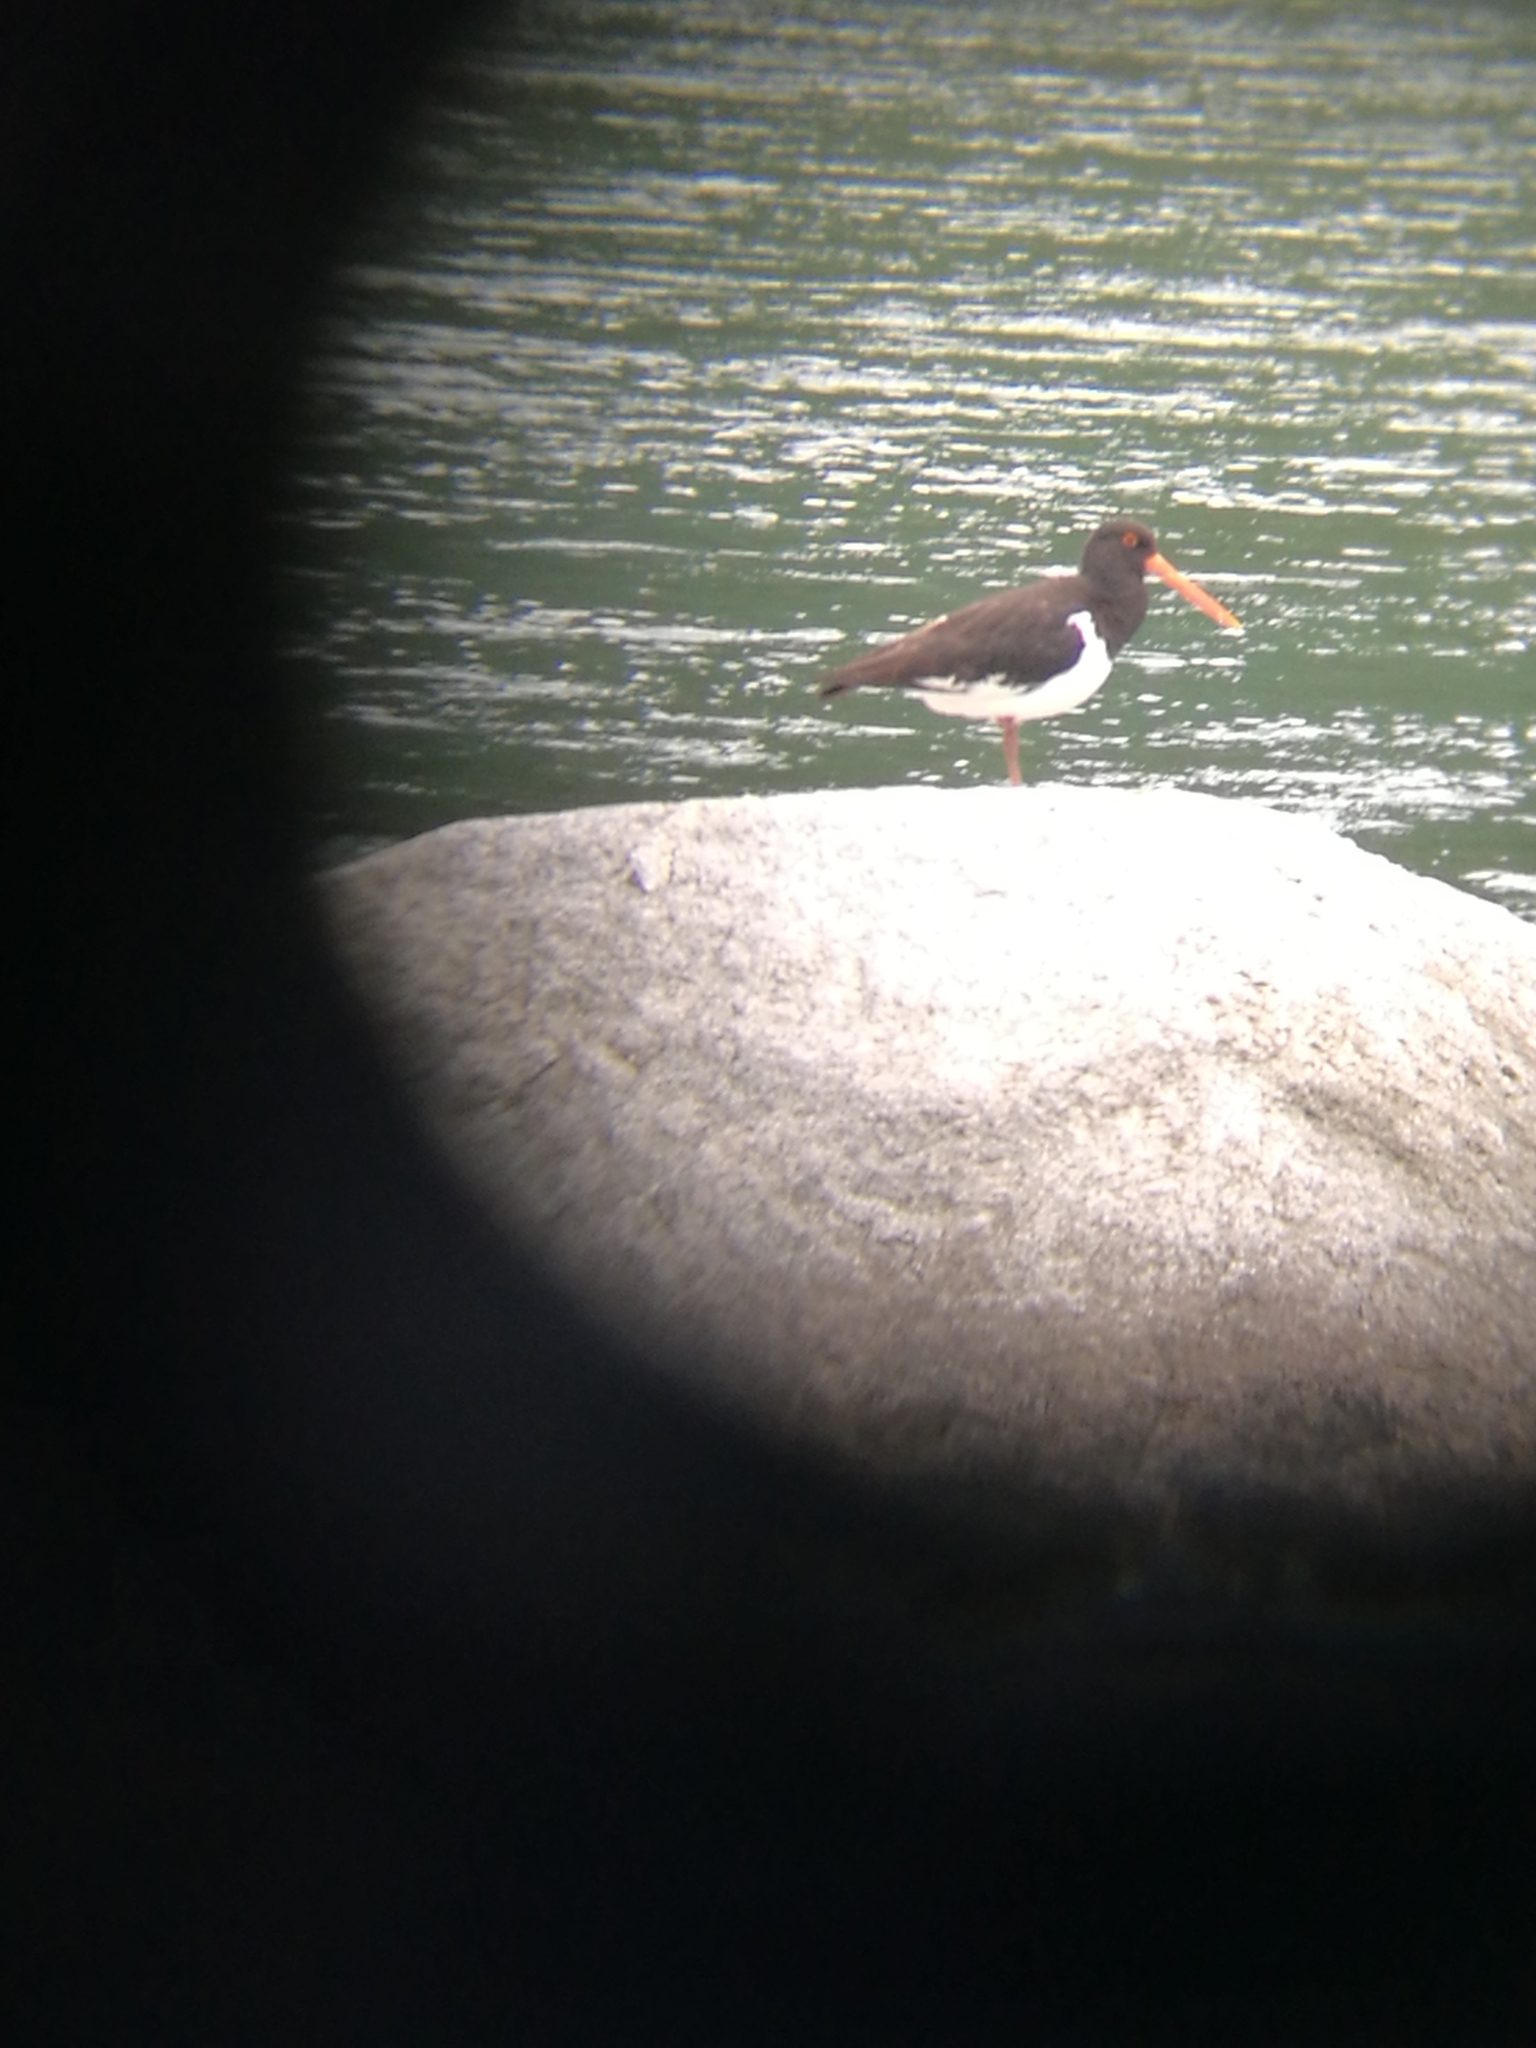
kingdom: Animalia
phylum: Chordata
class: Aves
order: Charadriiformes
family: Haematopodidae
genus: Haematopus
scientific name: Haematopus finschi
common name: South island oystercatcher
